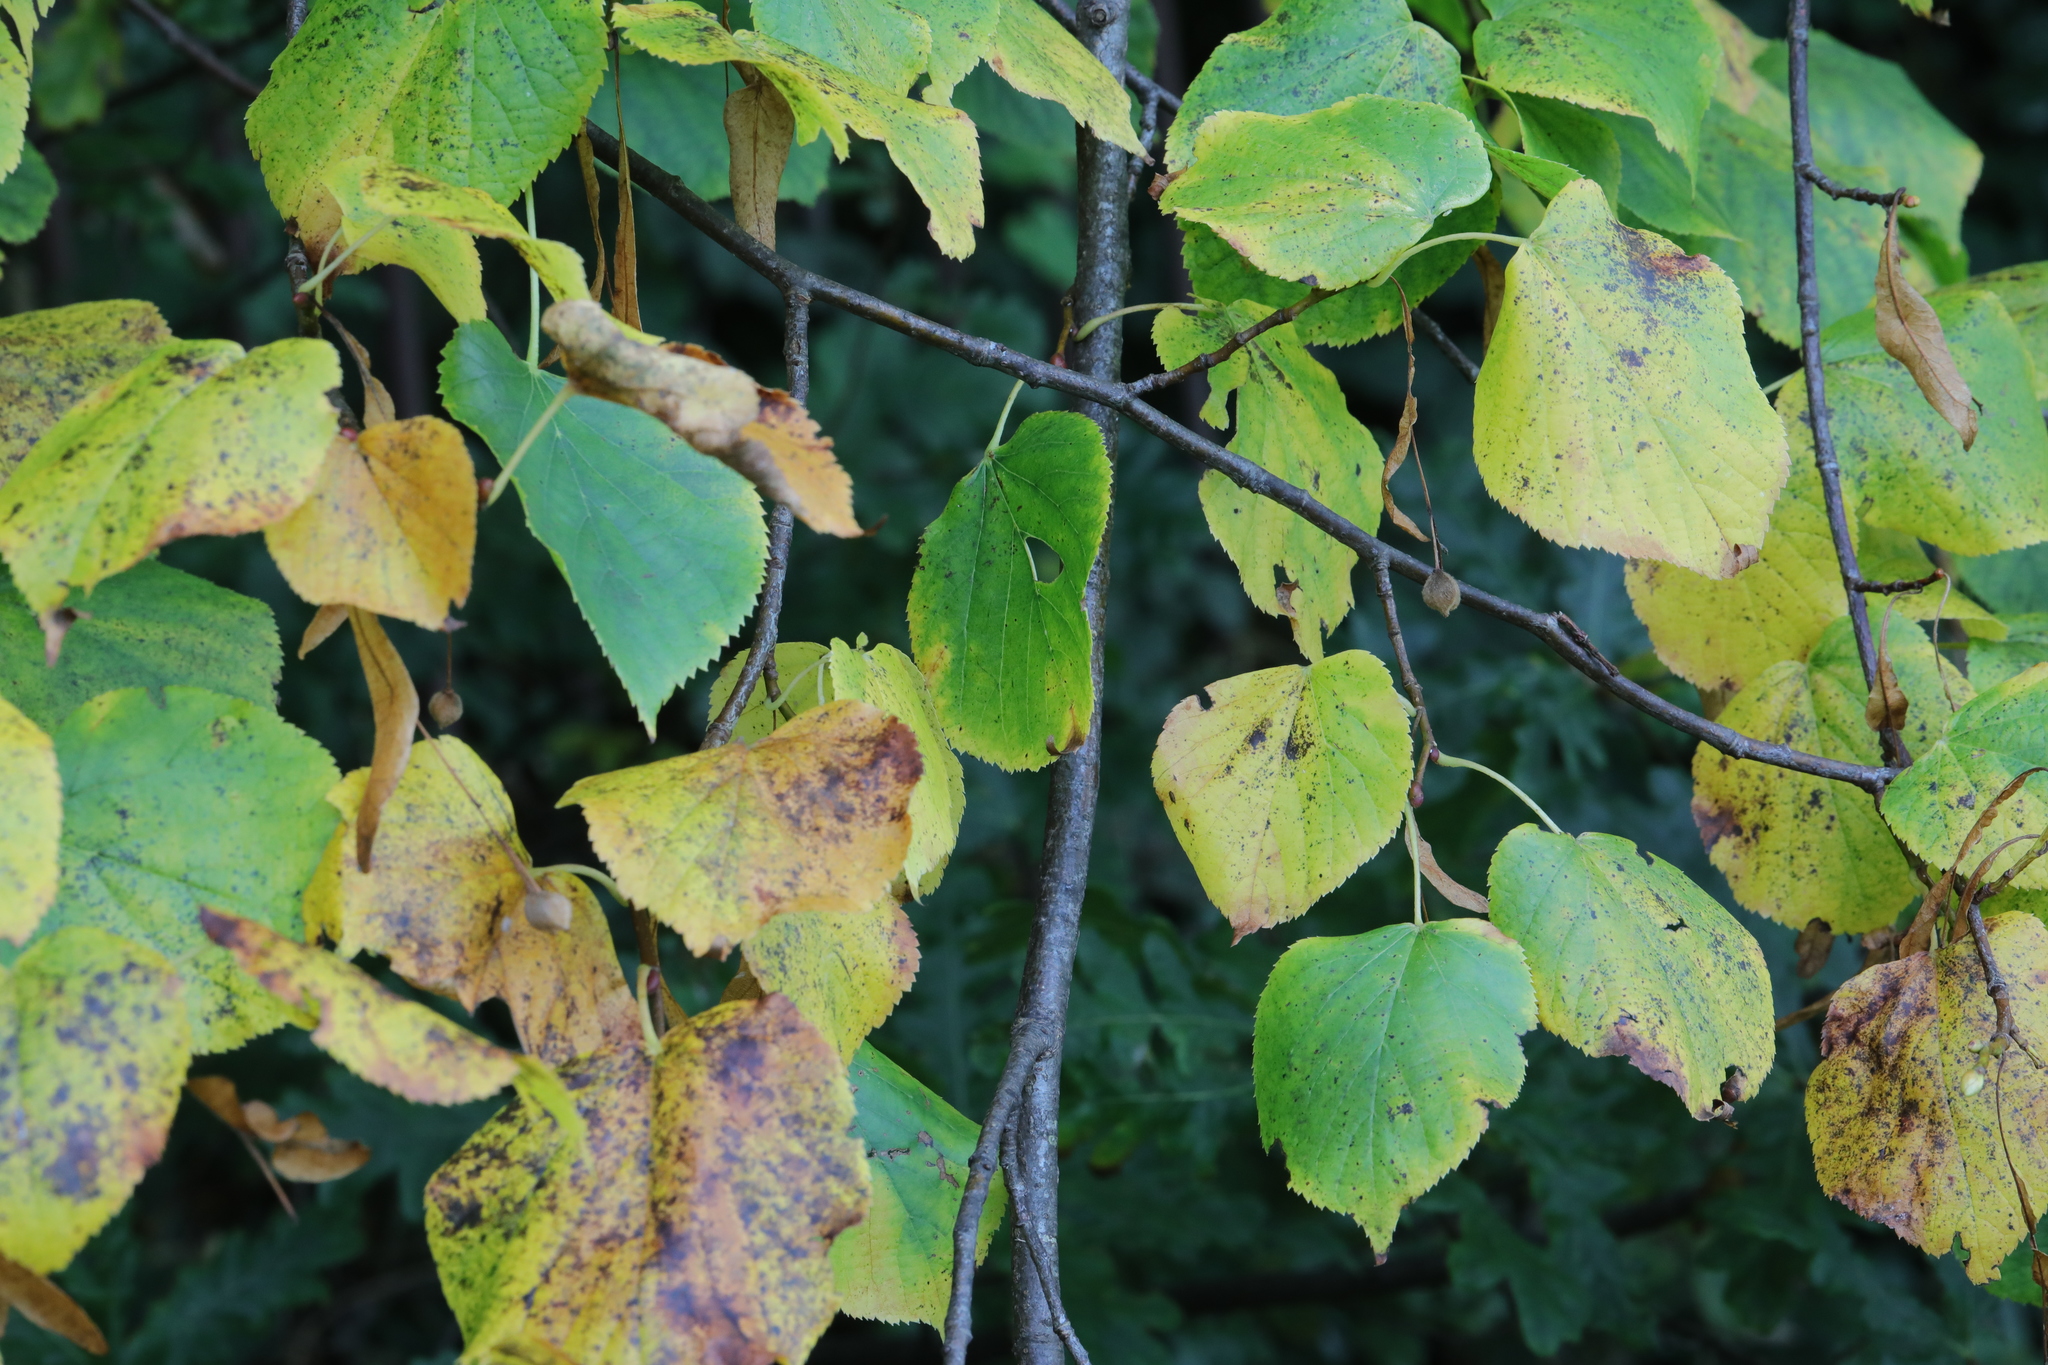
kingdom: Plantae
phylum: Tracheophyta
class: Magnoliopsida
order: Malvales
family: Malvaceae
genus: Tilia
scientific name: Tilia europaea
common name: European linden
